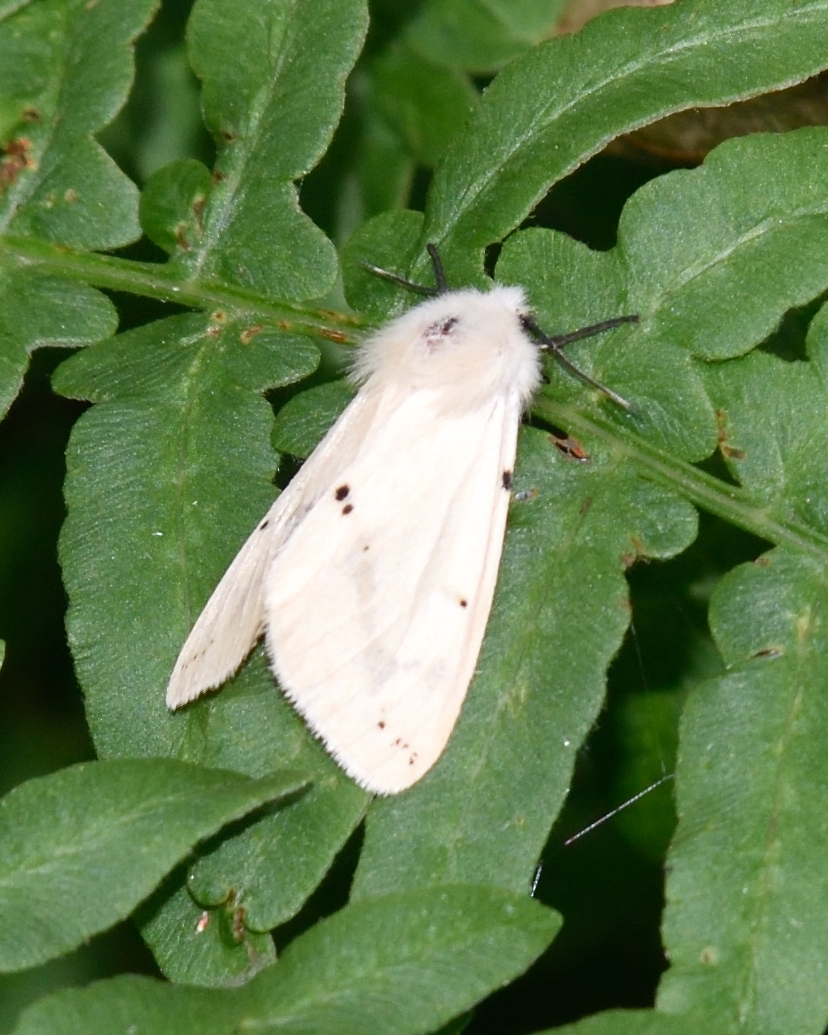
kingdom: Animalia
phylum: Arthropoda
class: Insecta
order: Lepidoptera
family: Erebidae
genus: Spilarctia
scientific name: Spilarctia lutea
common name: Buff ermine
